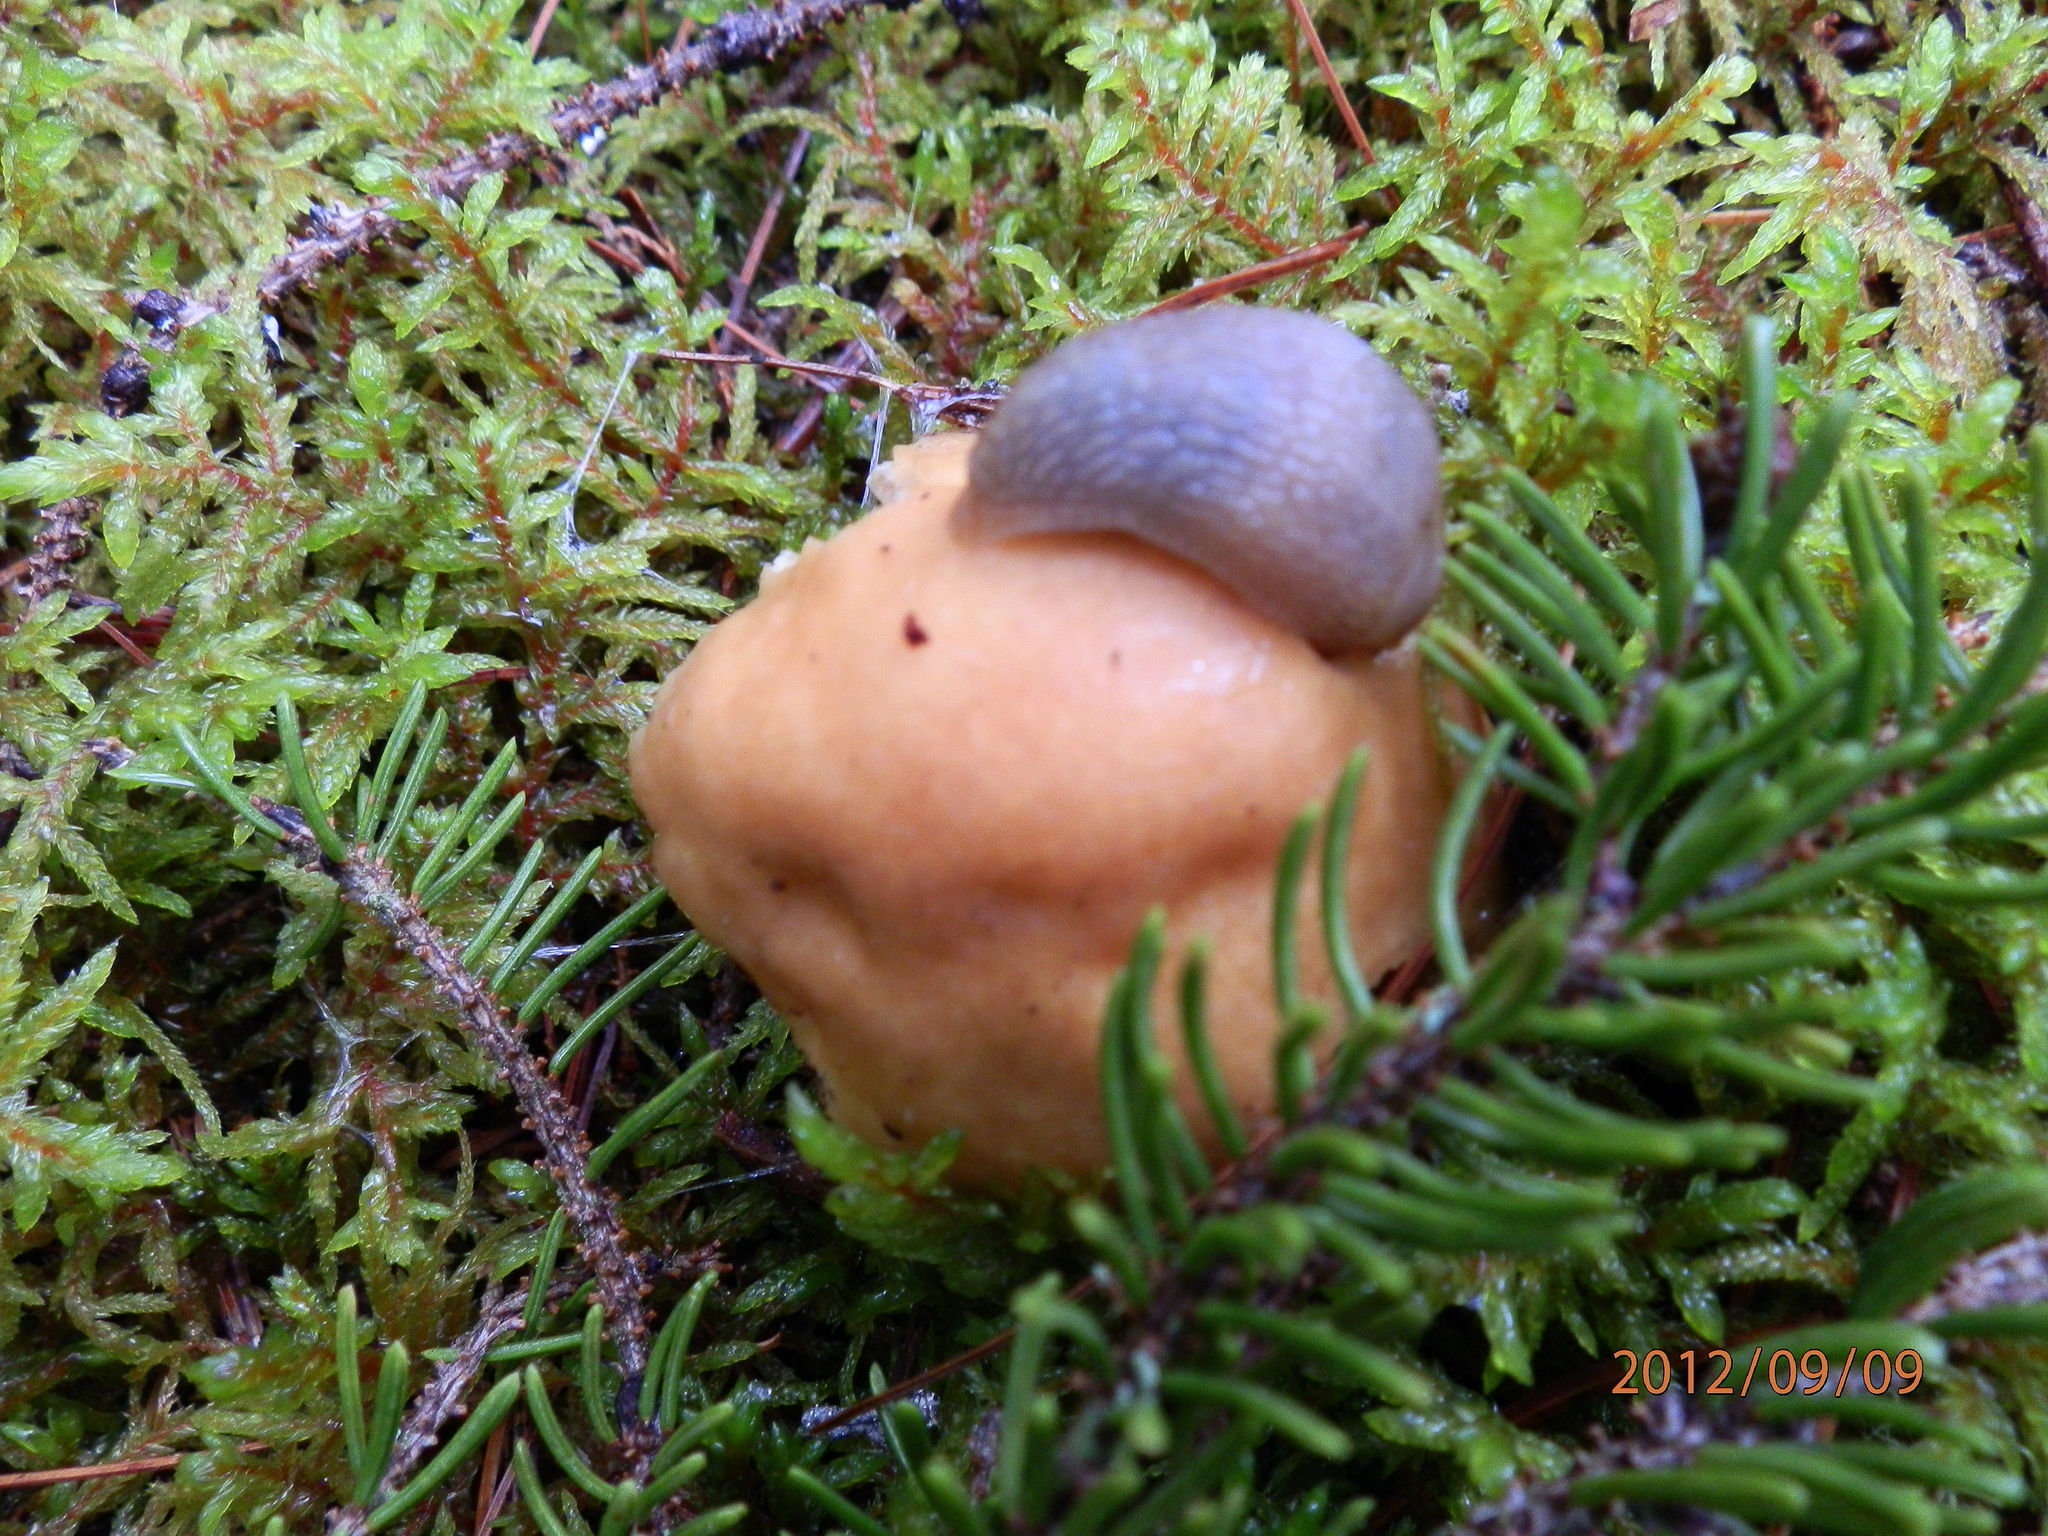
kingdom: Fungi
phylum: Basidiomycota
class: Agaricomycetes
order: Agaricales
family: Cortinariaceae
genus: Cortinarius
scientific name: Cortinarius caperatus
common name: The gypsy
